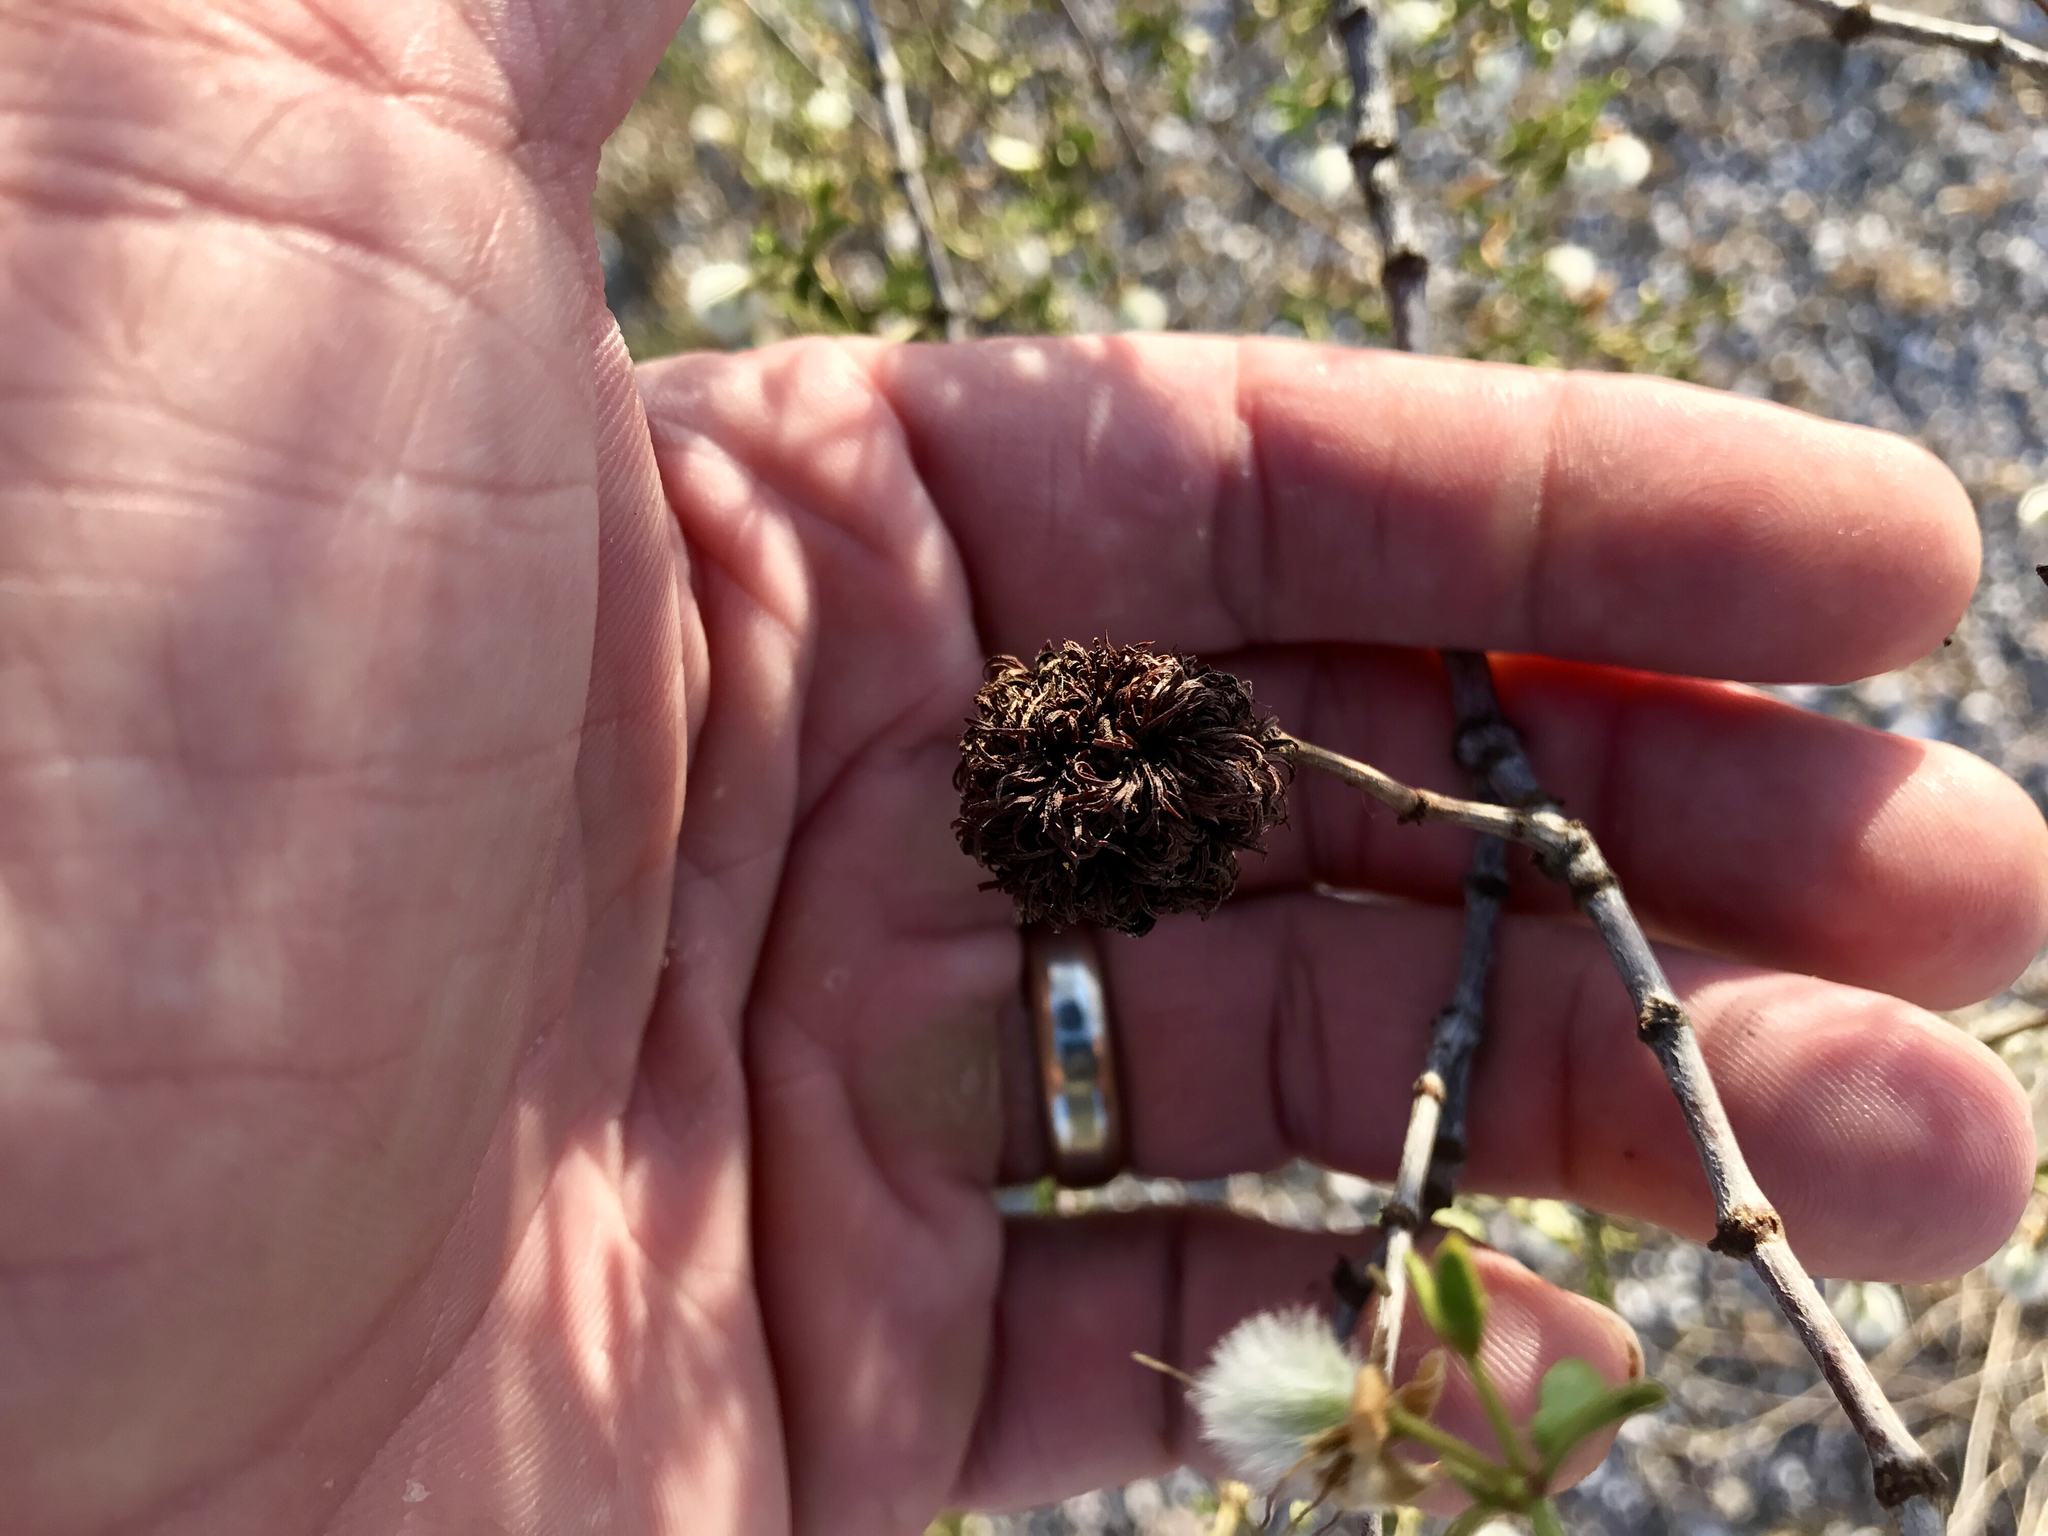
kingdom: Animalia
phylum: Arthropoda
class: Insecta
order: Diptera
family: Cecidomyiidae
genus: Asphondylia
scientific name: Asphondylia auripila
